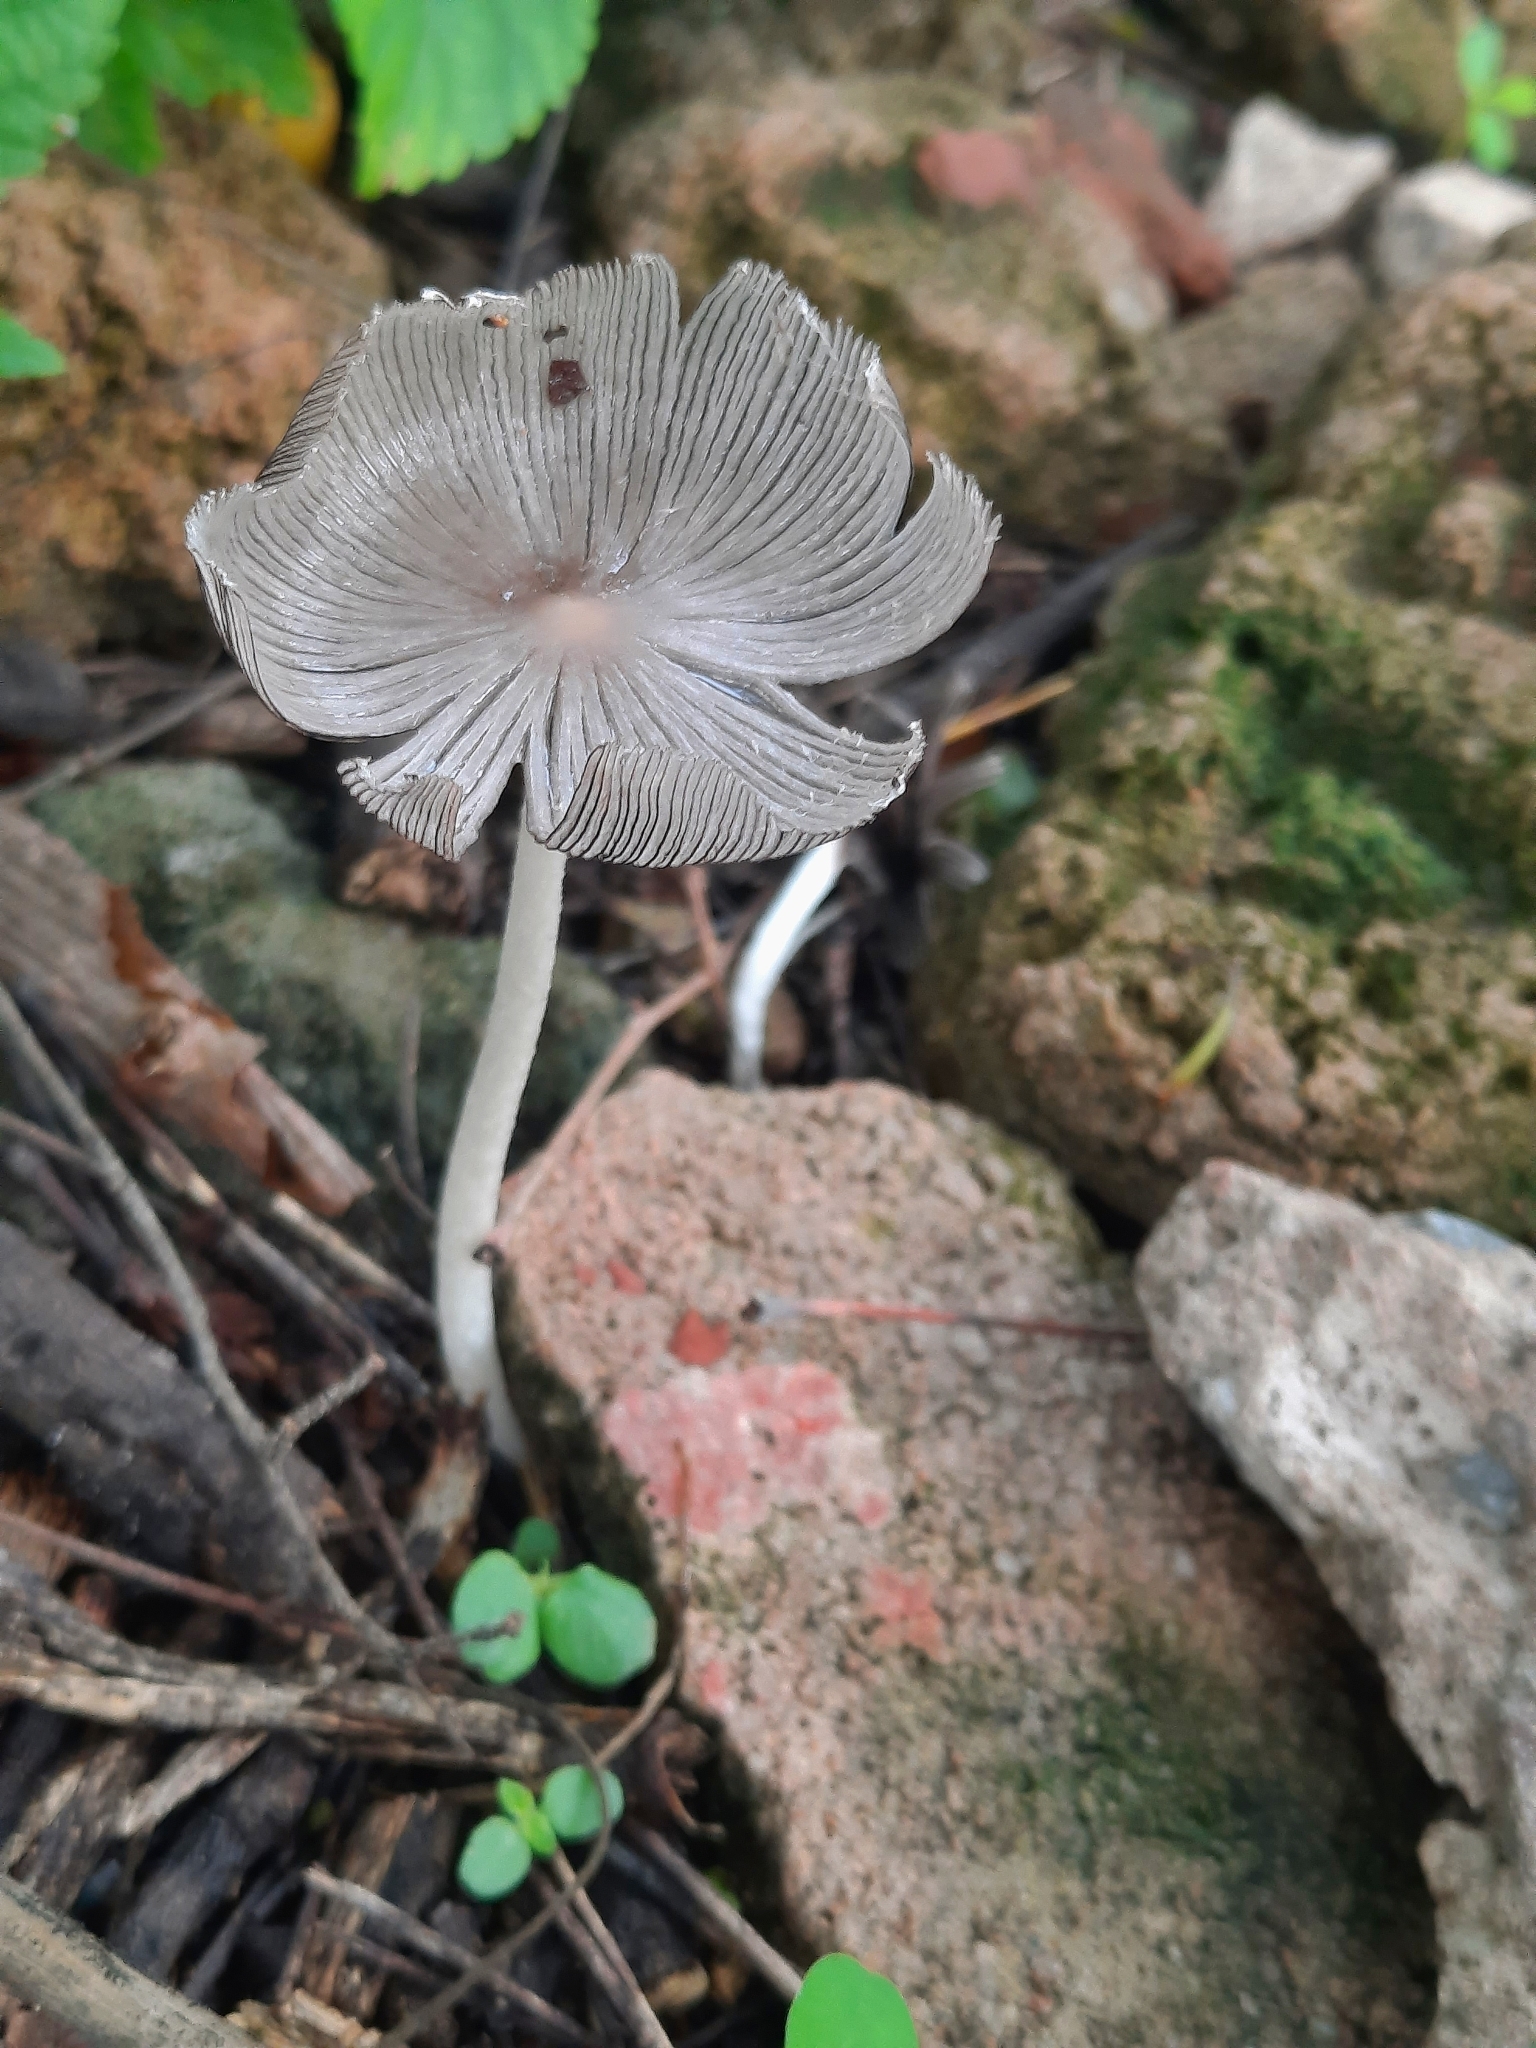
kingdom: Fungi
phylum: Basidiomycota
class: Agaricomycetes
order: Agaricales
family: Psathyrellaceae
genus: Coprinopsis
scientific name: Coprinopsis lagopus
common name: Hare'sfoot inkcap
